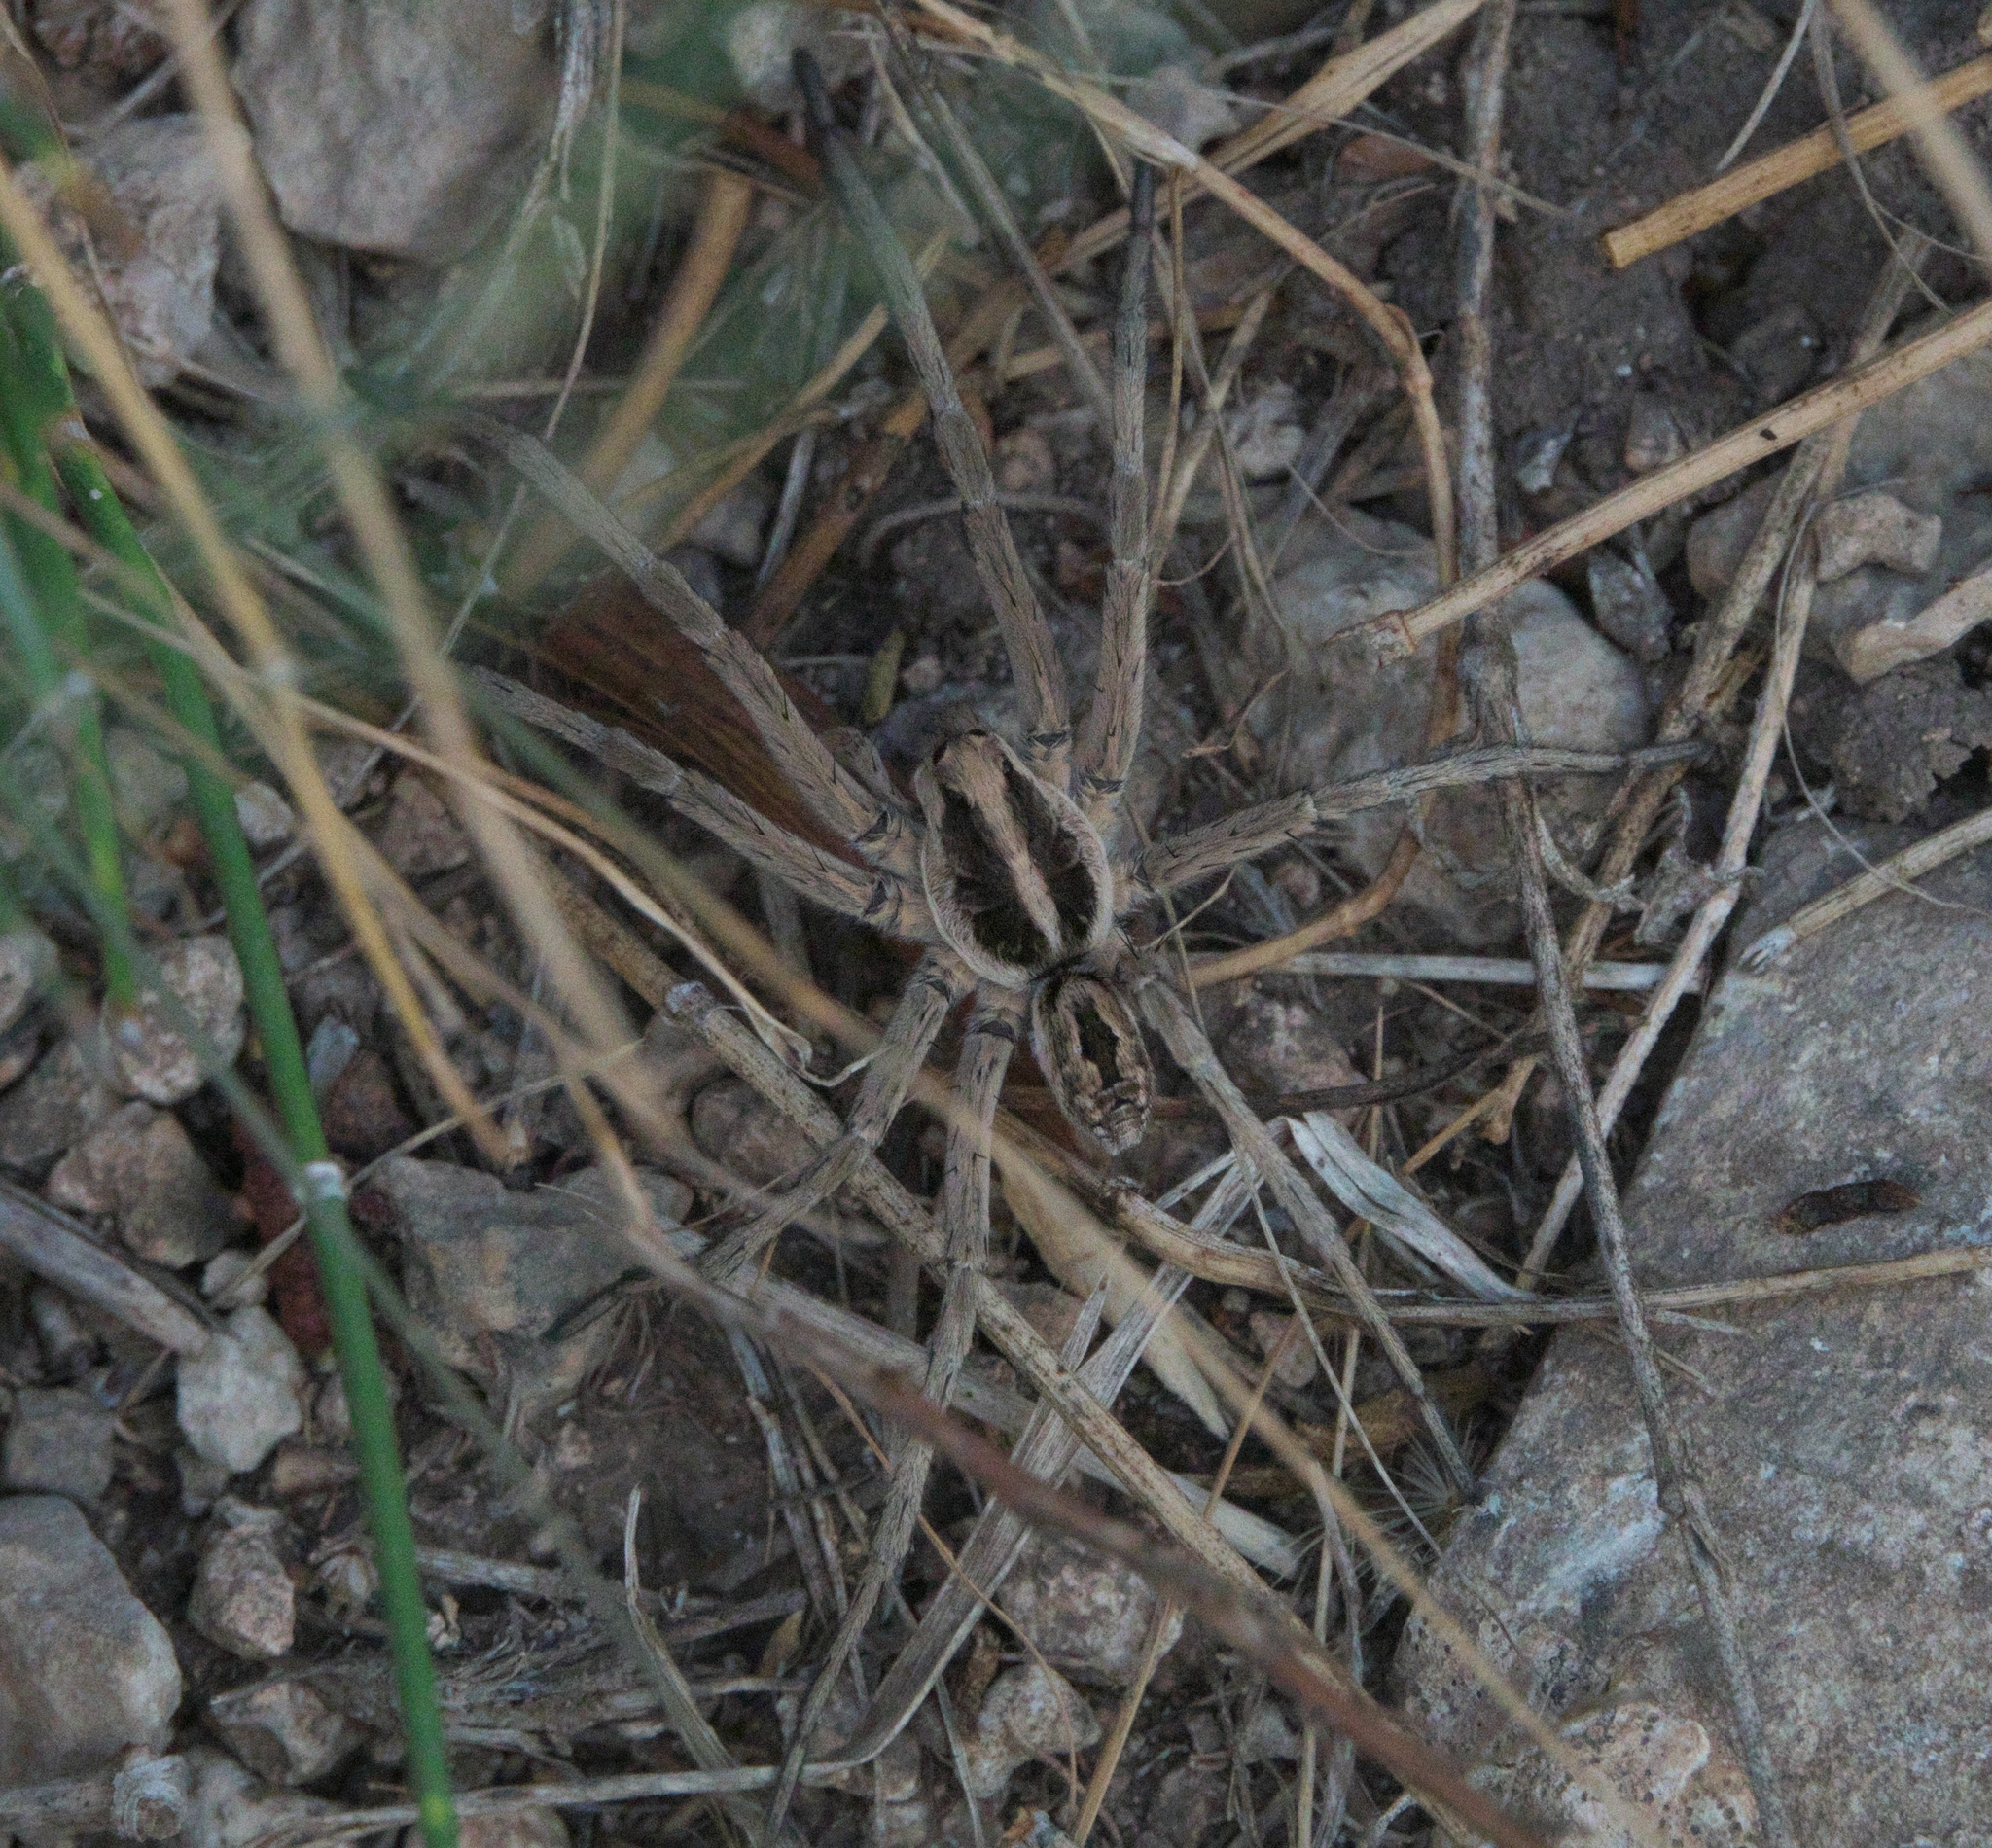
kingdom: Animalia
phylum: Arthropoda
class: Arachnida
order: Araneae
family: Lycosidae
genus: Hogna
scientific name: Hogna carolinensis
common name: Carolina wolf spider
